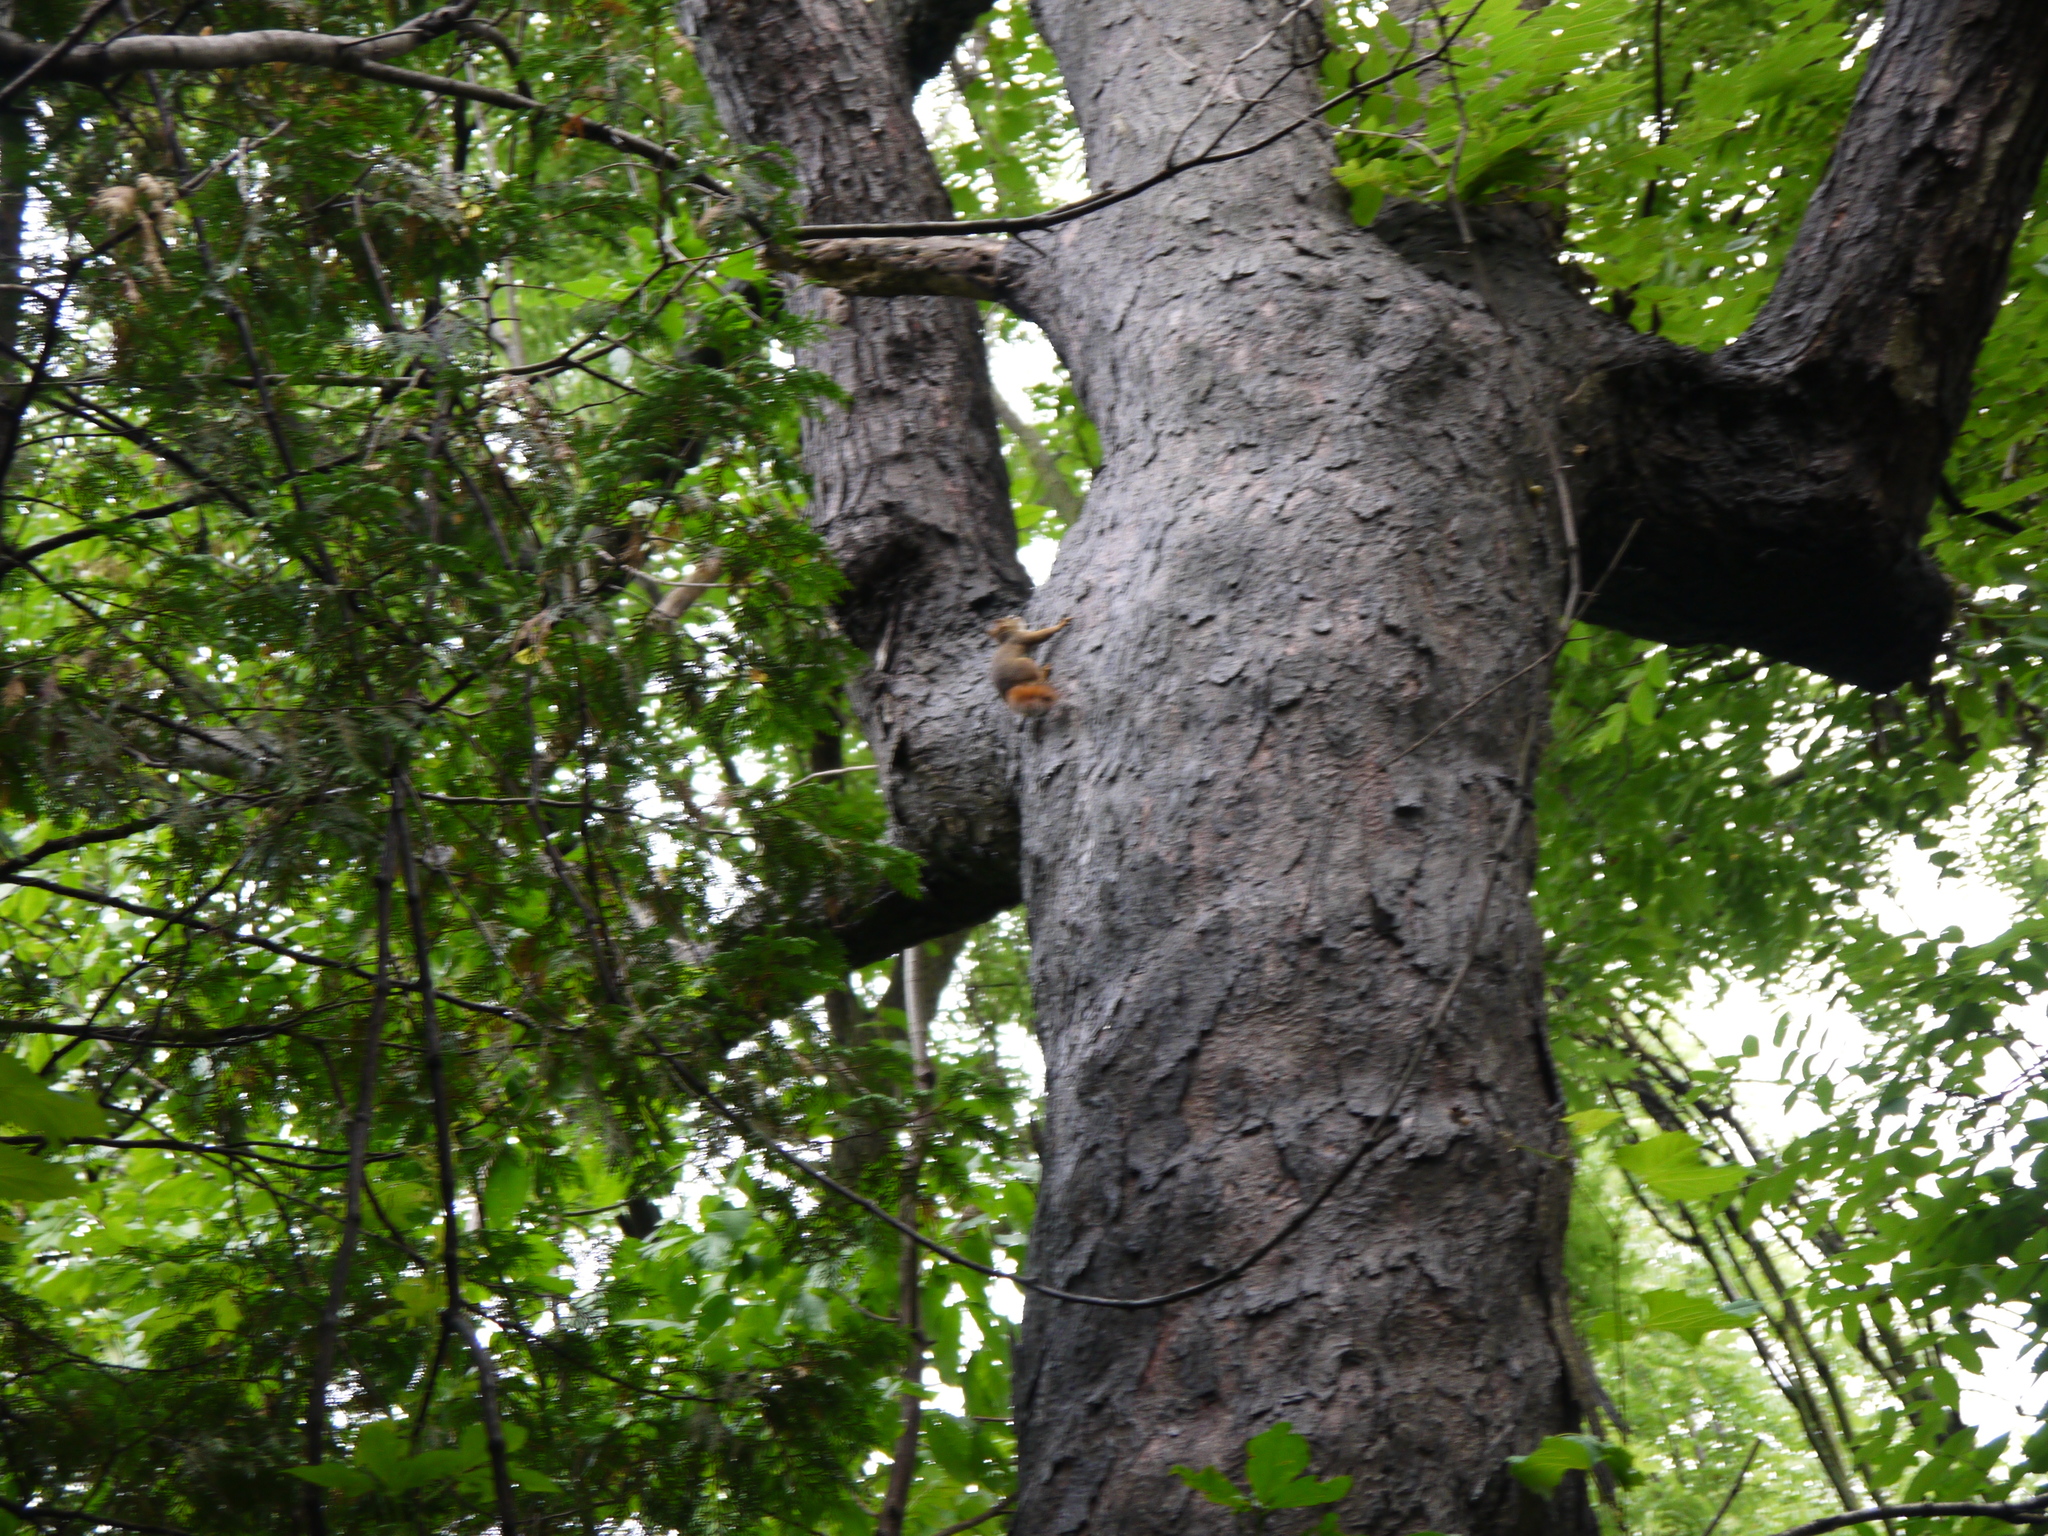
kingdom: Animalia
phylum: Chordata
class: Mammalia
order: Rodentia
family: Sciuridae
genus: Tamiasciurus
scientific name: Tamiasciurus hudsonicus
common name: Red squirrel
